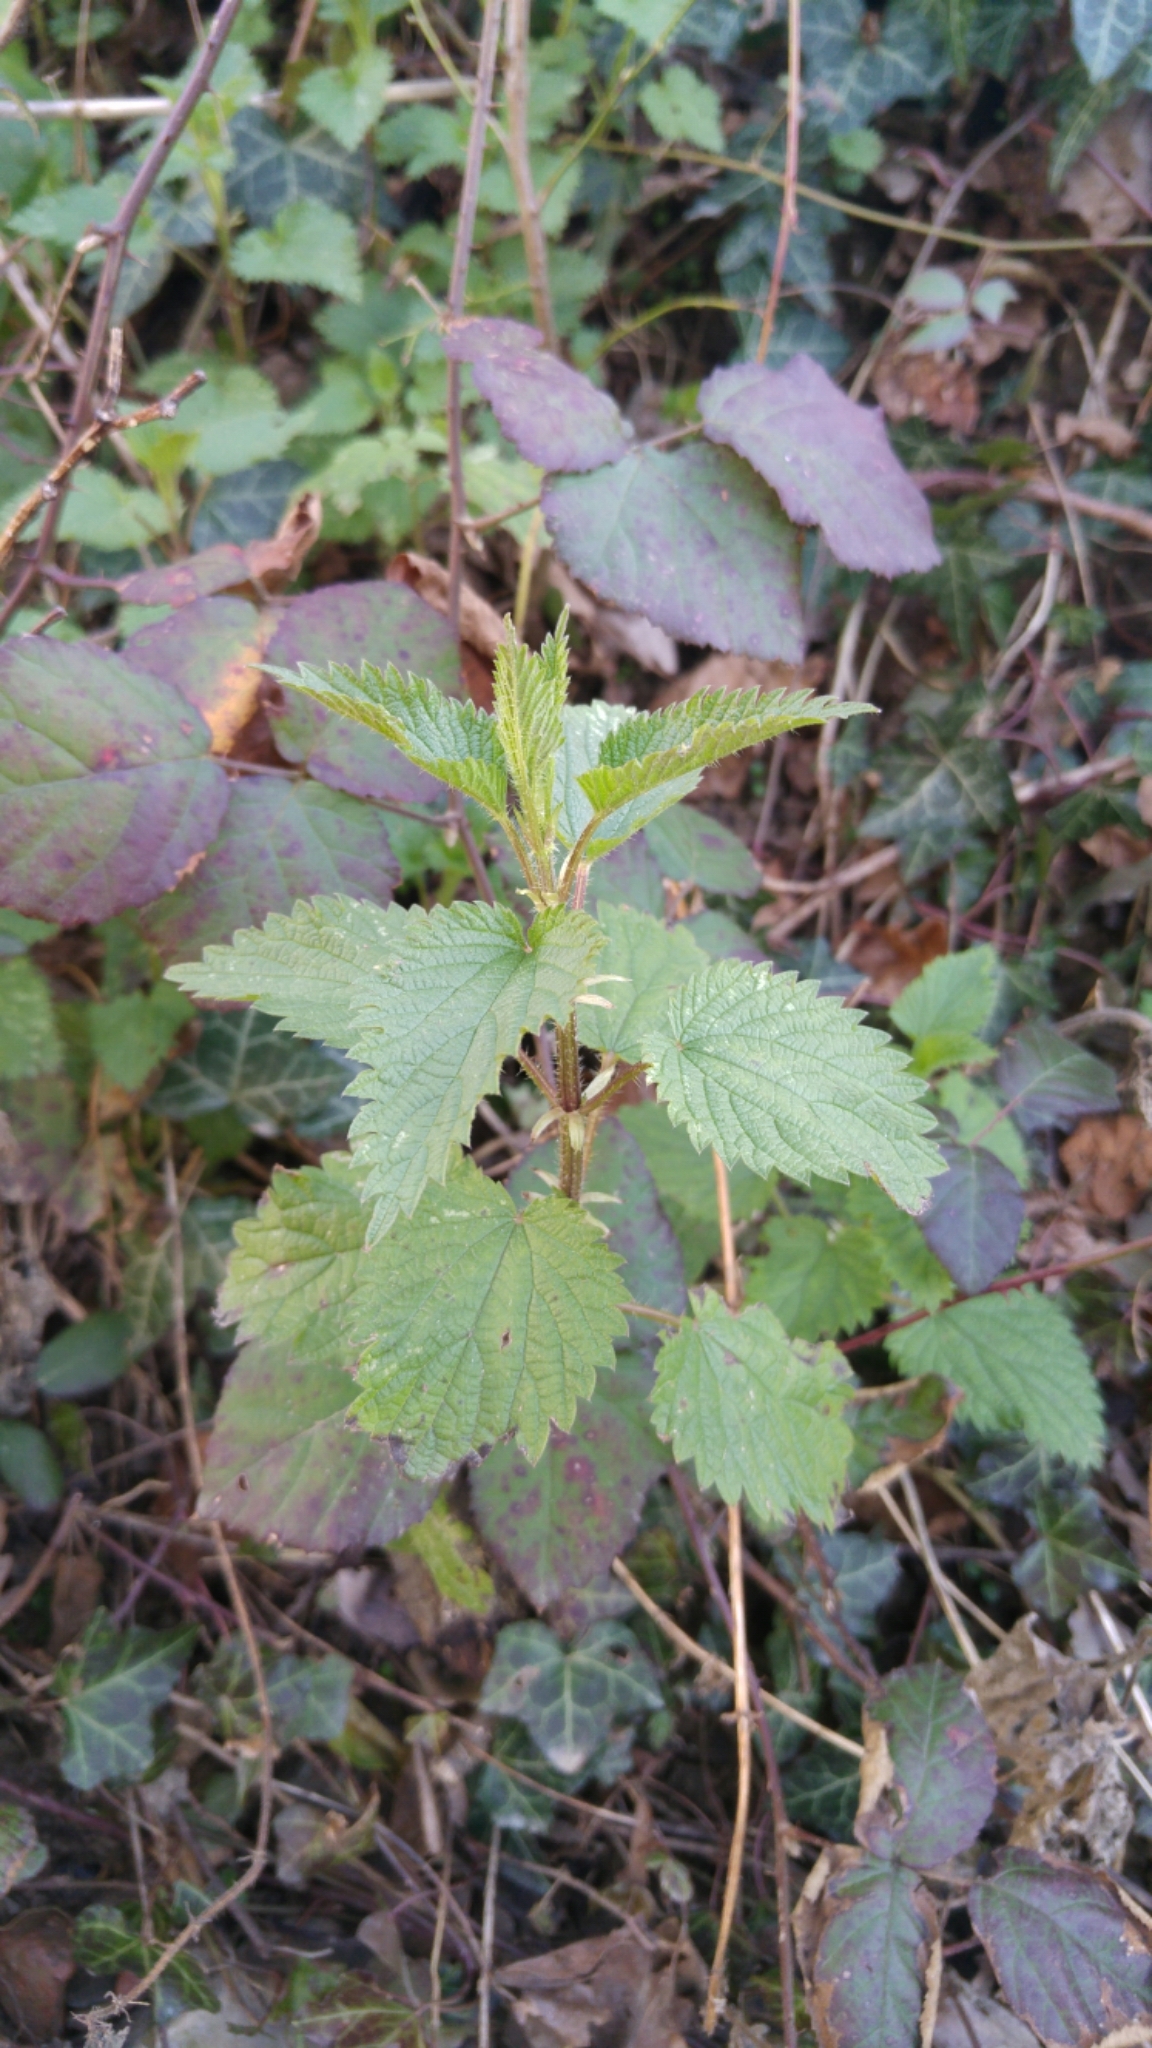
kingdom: Plantae
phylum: Tracheophyta
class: Magnoliopsida
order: Rosales
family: Urticaceae
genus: Urtica
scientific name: Urtica dioica
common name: Common nettle
